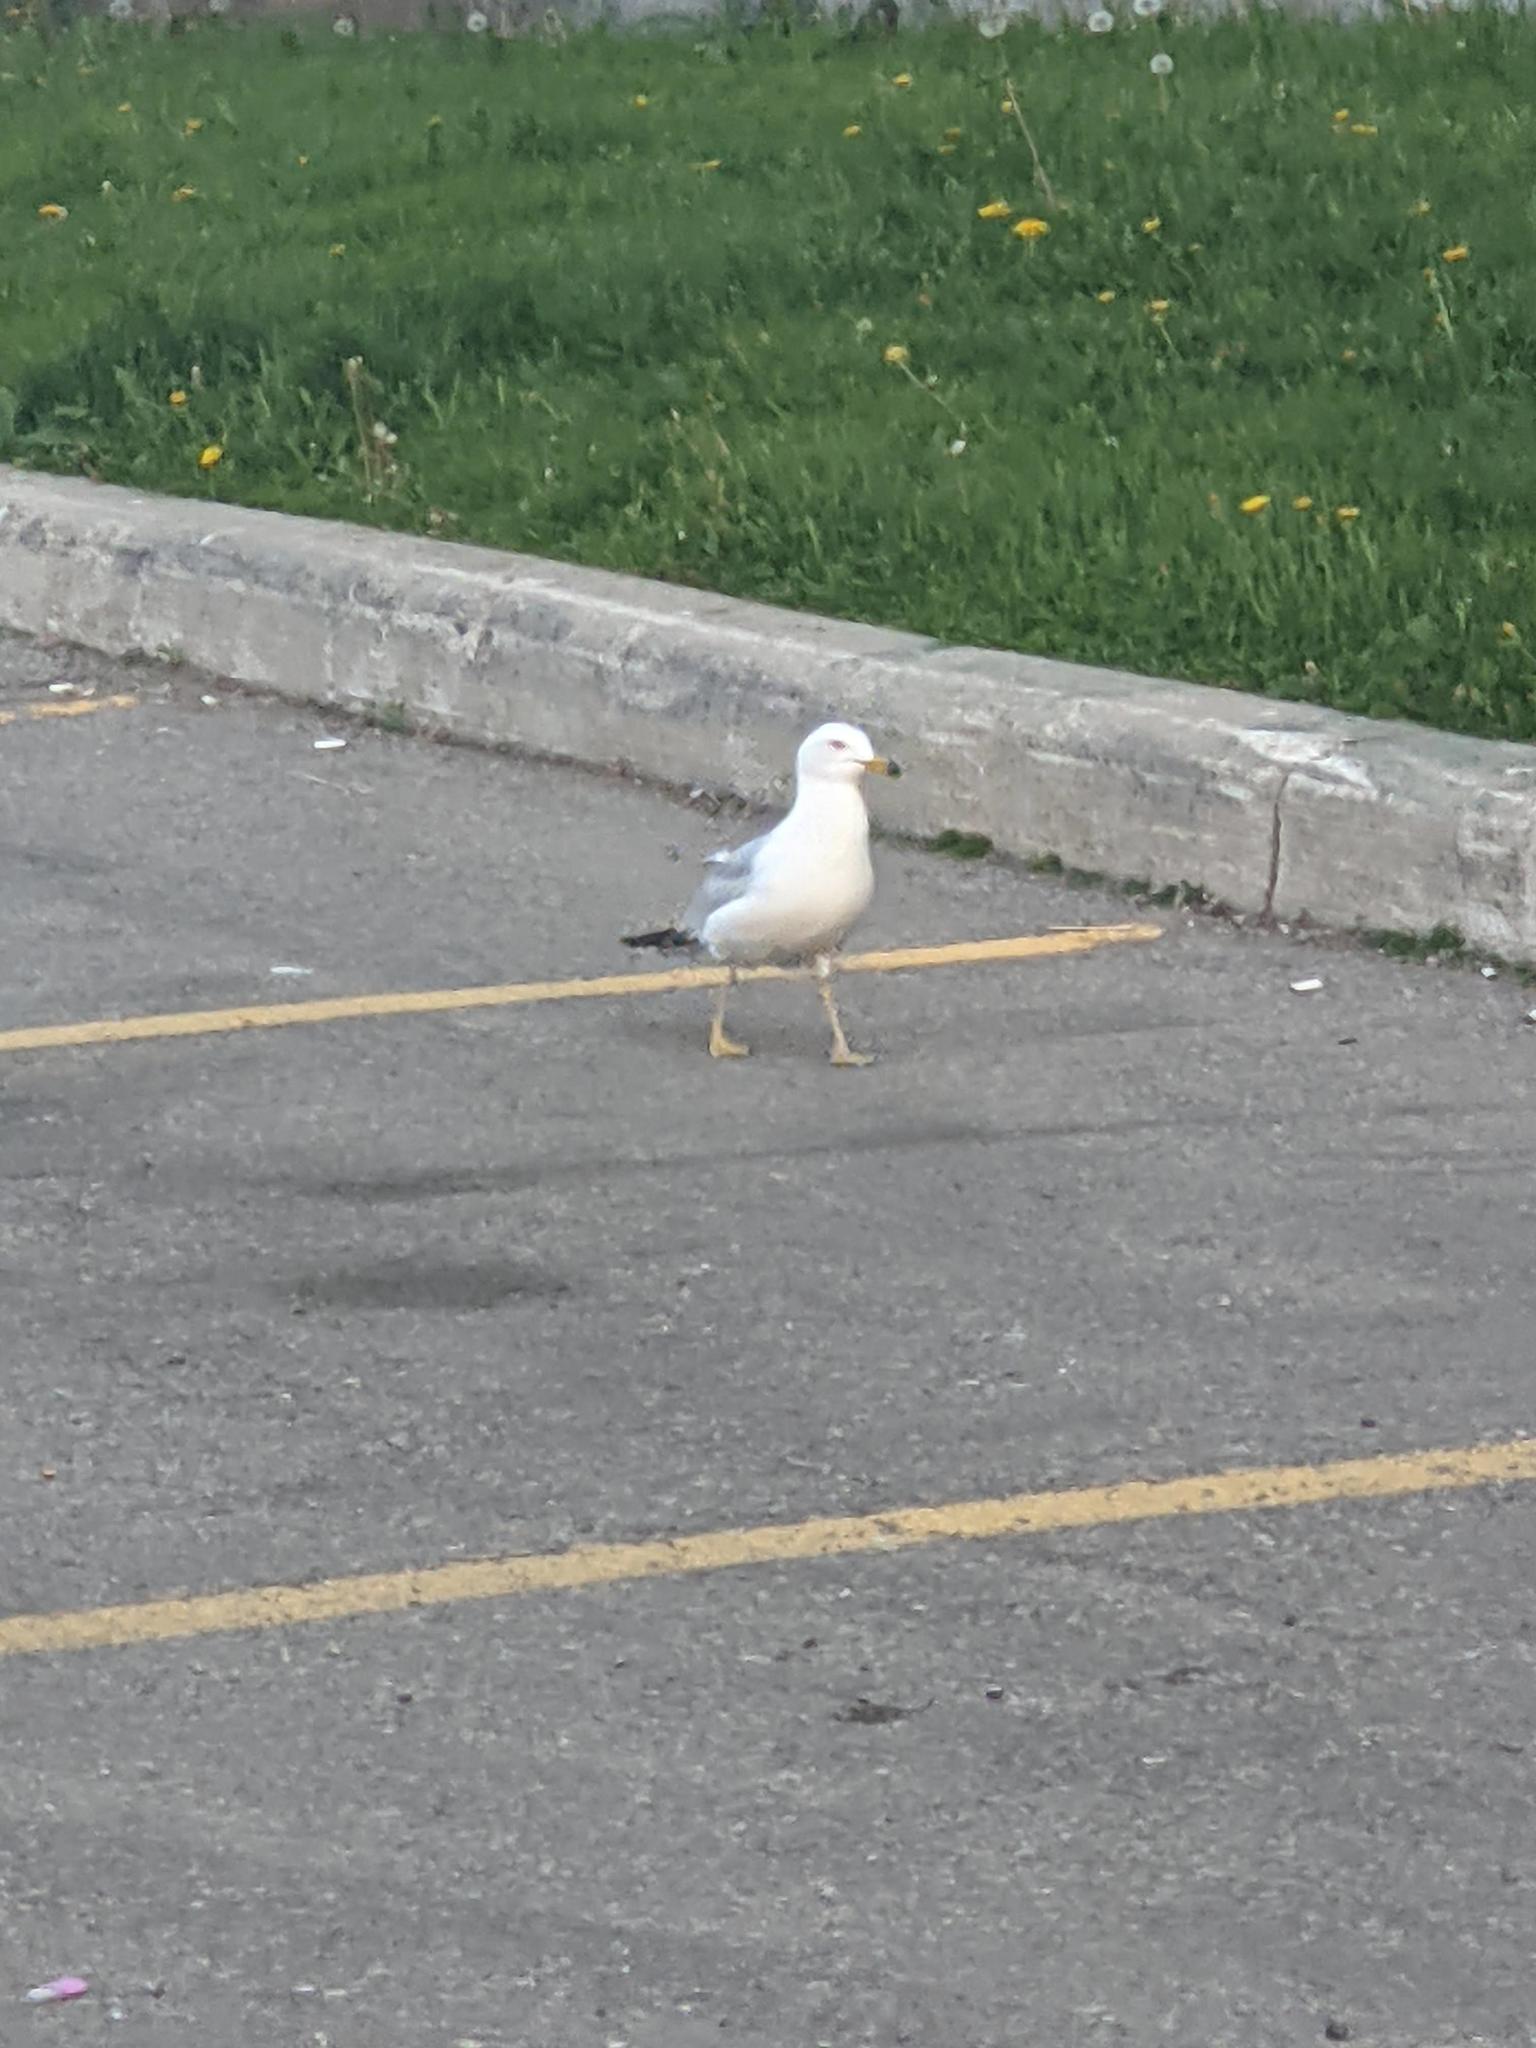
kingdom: Animalia
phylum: Chordata
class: Aves
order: Charadriiformes
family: Laridae
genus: Larus
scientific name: Larus delawarensis
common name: Ring-billed gull
